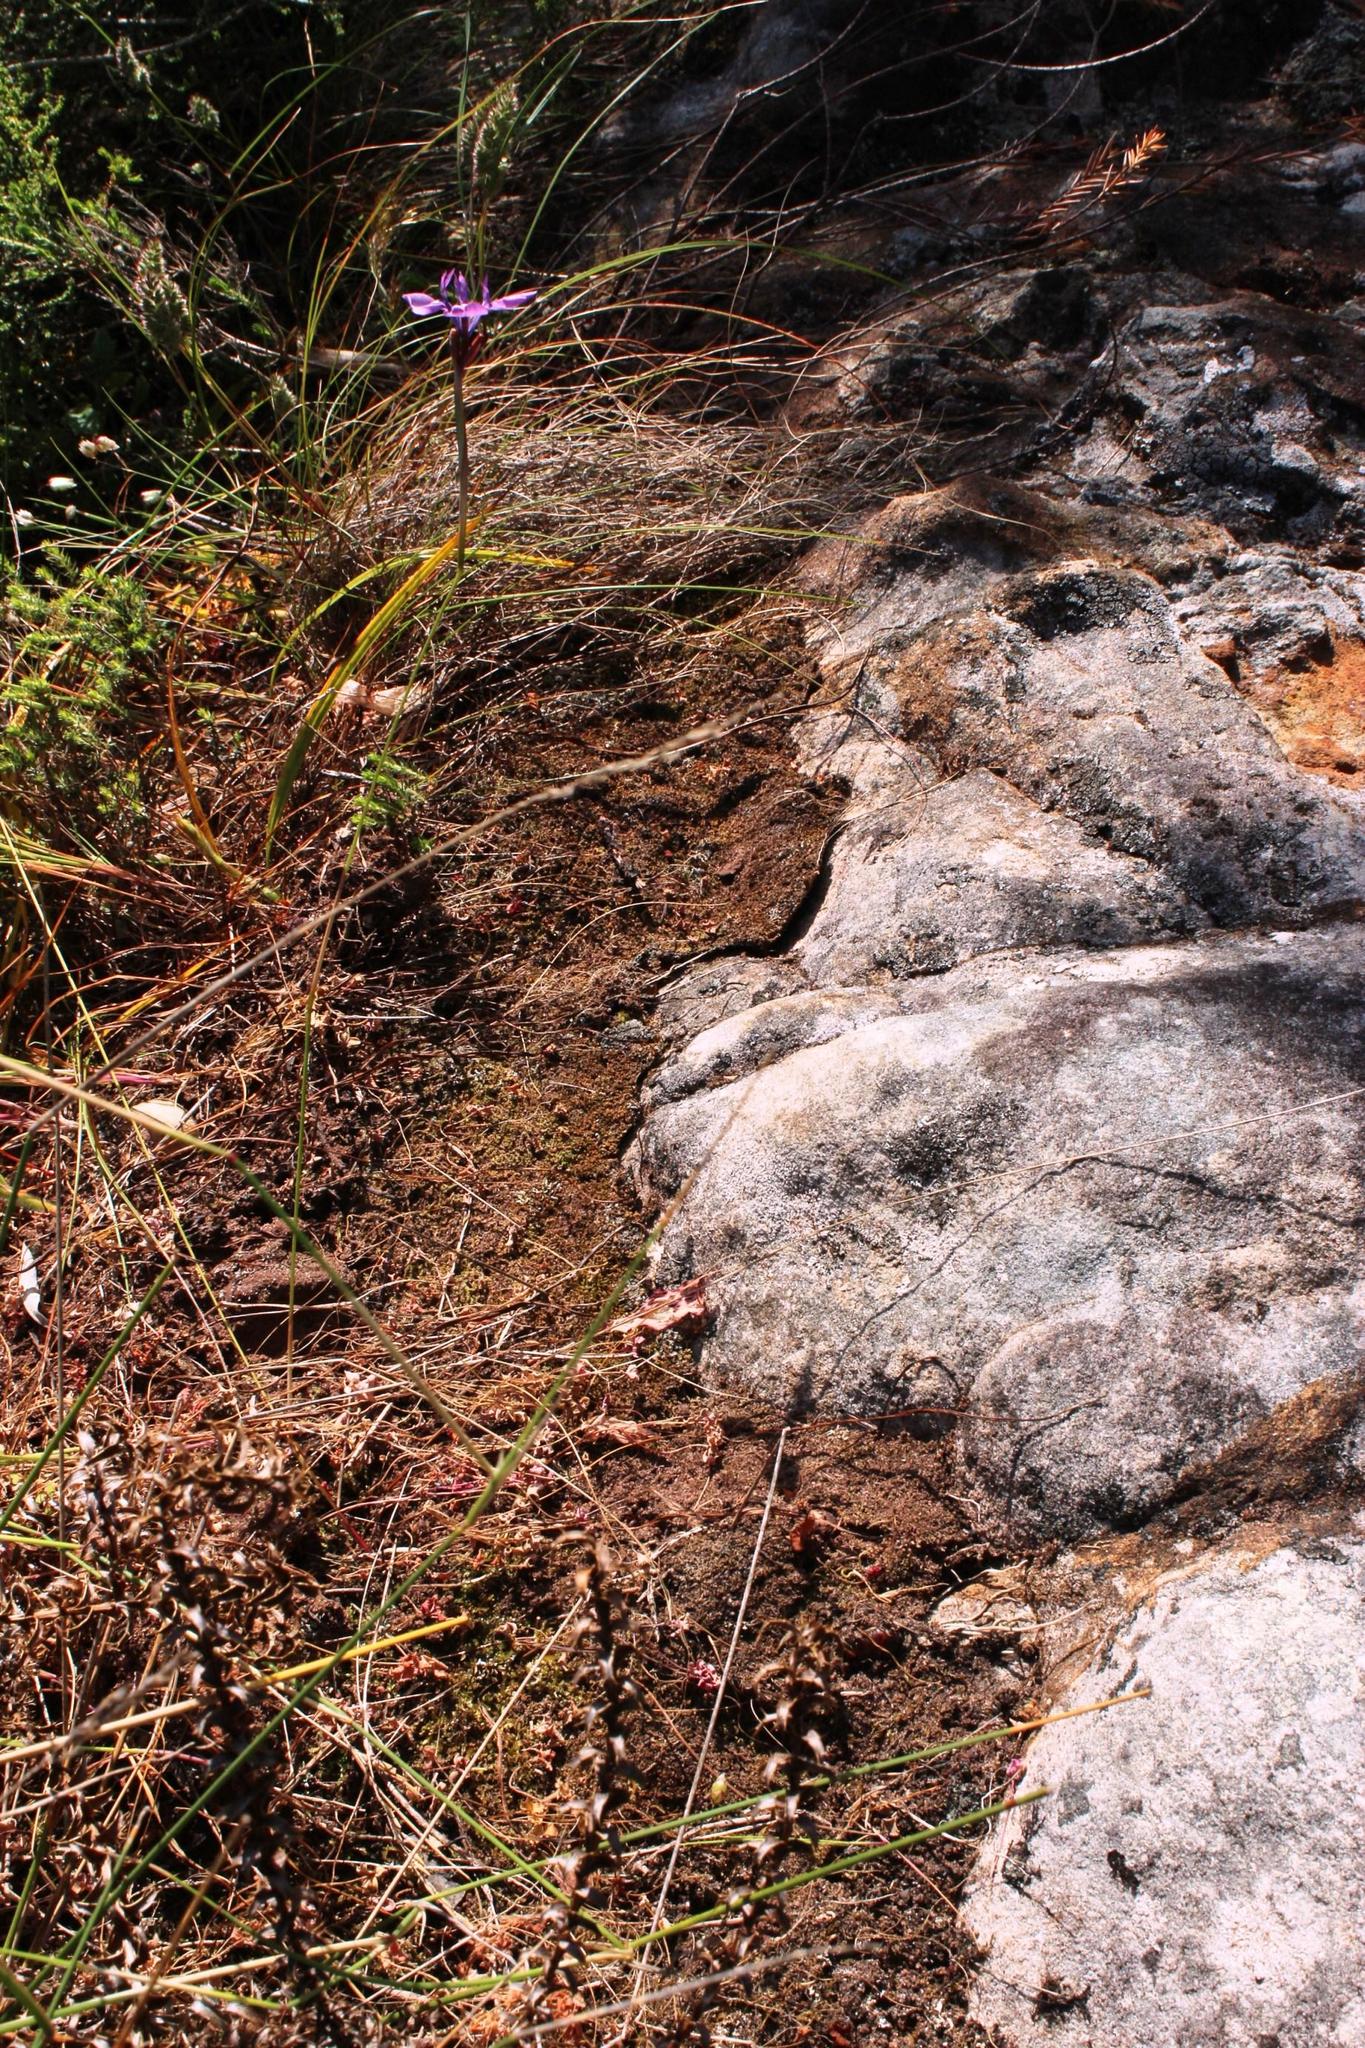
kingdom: Plantae
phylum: Tracheophyta
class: Liliopsida
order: Asparagales
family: Iridaceae
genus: Moraea
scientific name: Moraea tripetala
